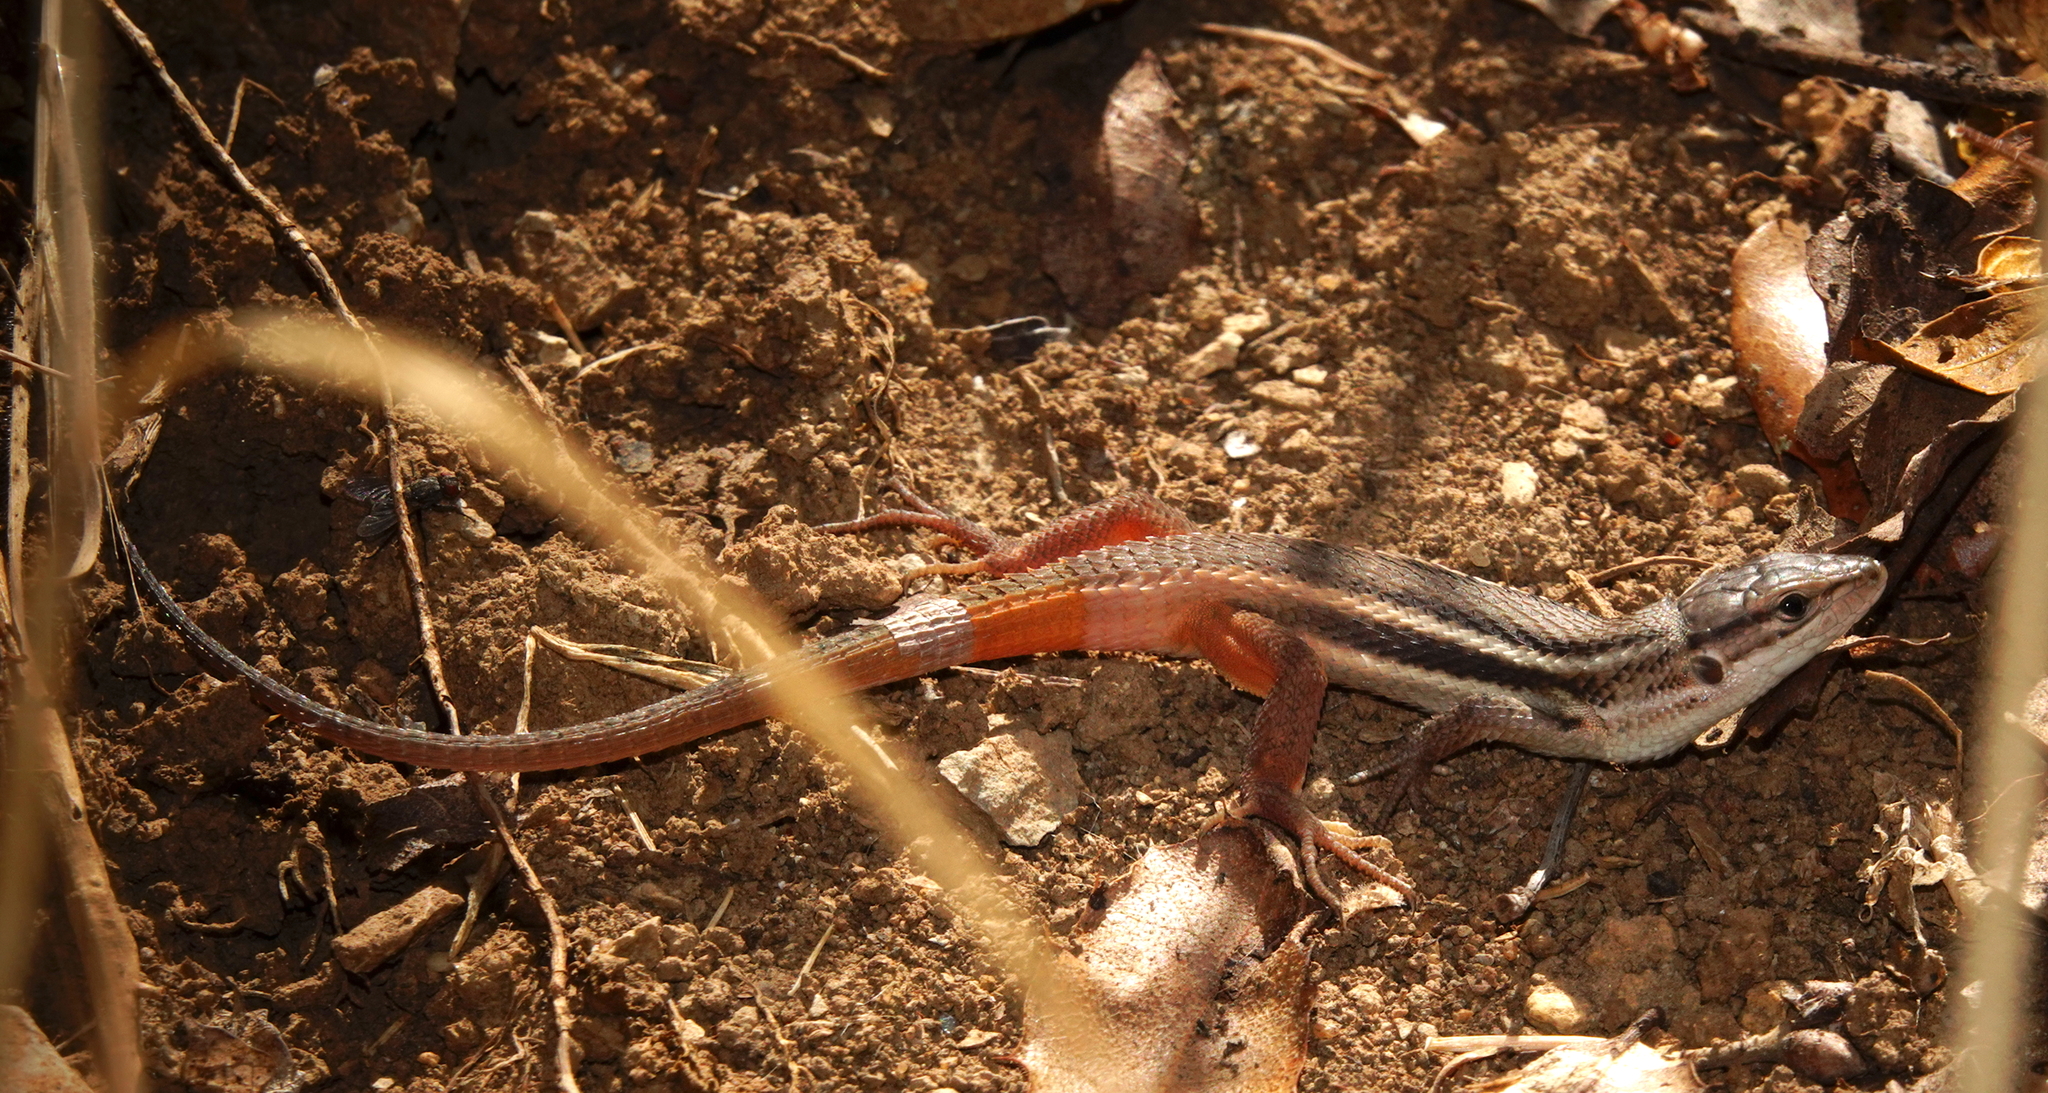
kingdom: Animalia
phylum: Chordata
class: Squamata
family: Lacertidae
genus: Psammodromus
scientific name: Psammodromus algirus
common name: Algerian psammodromus
